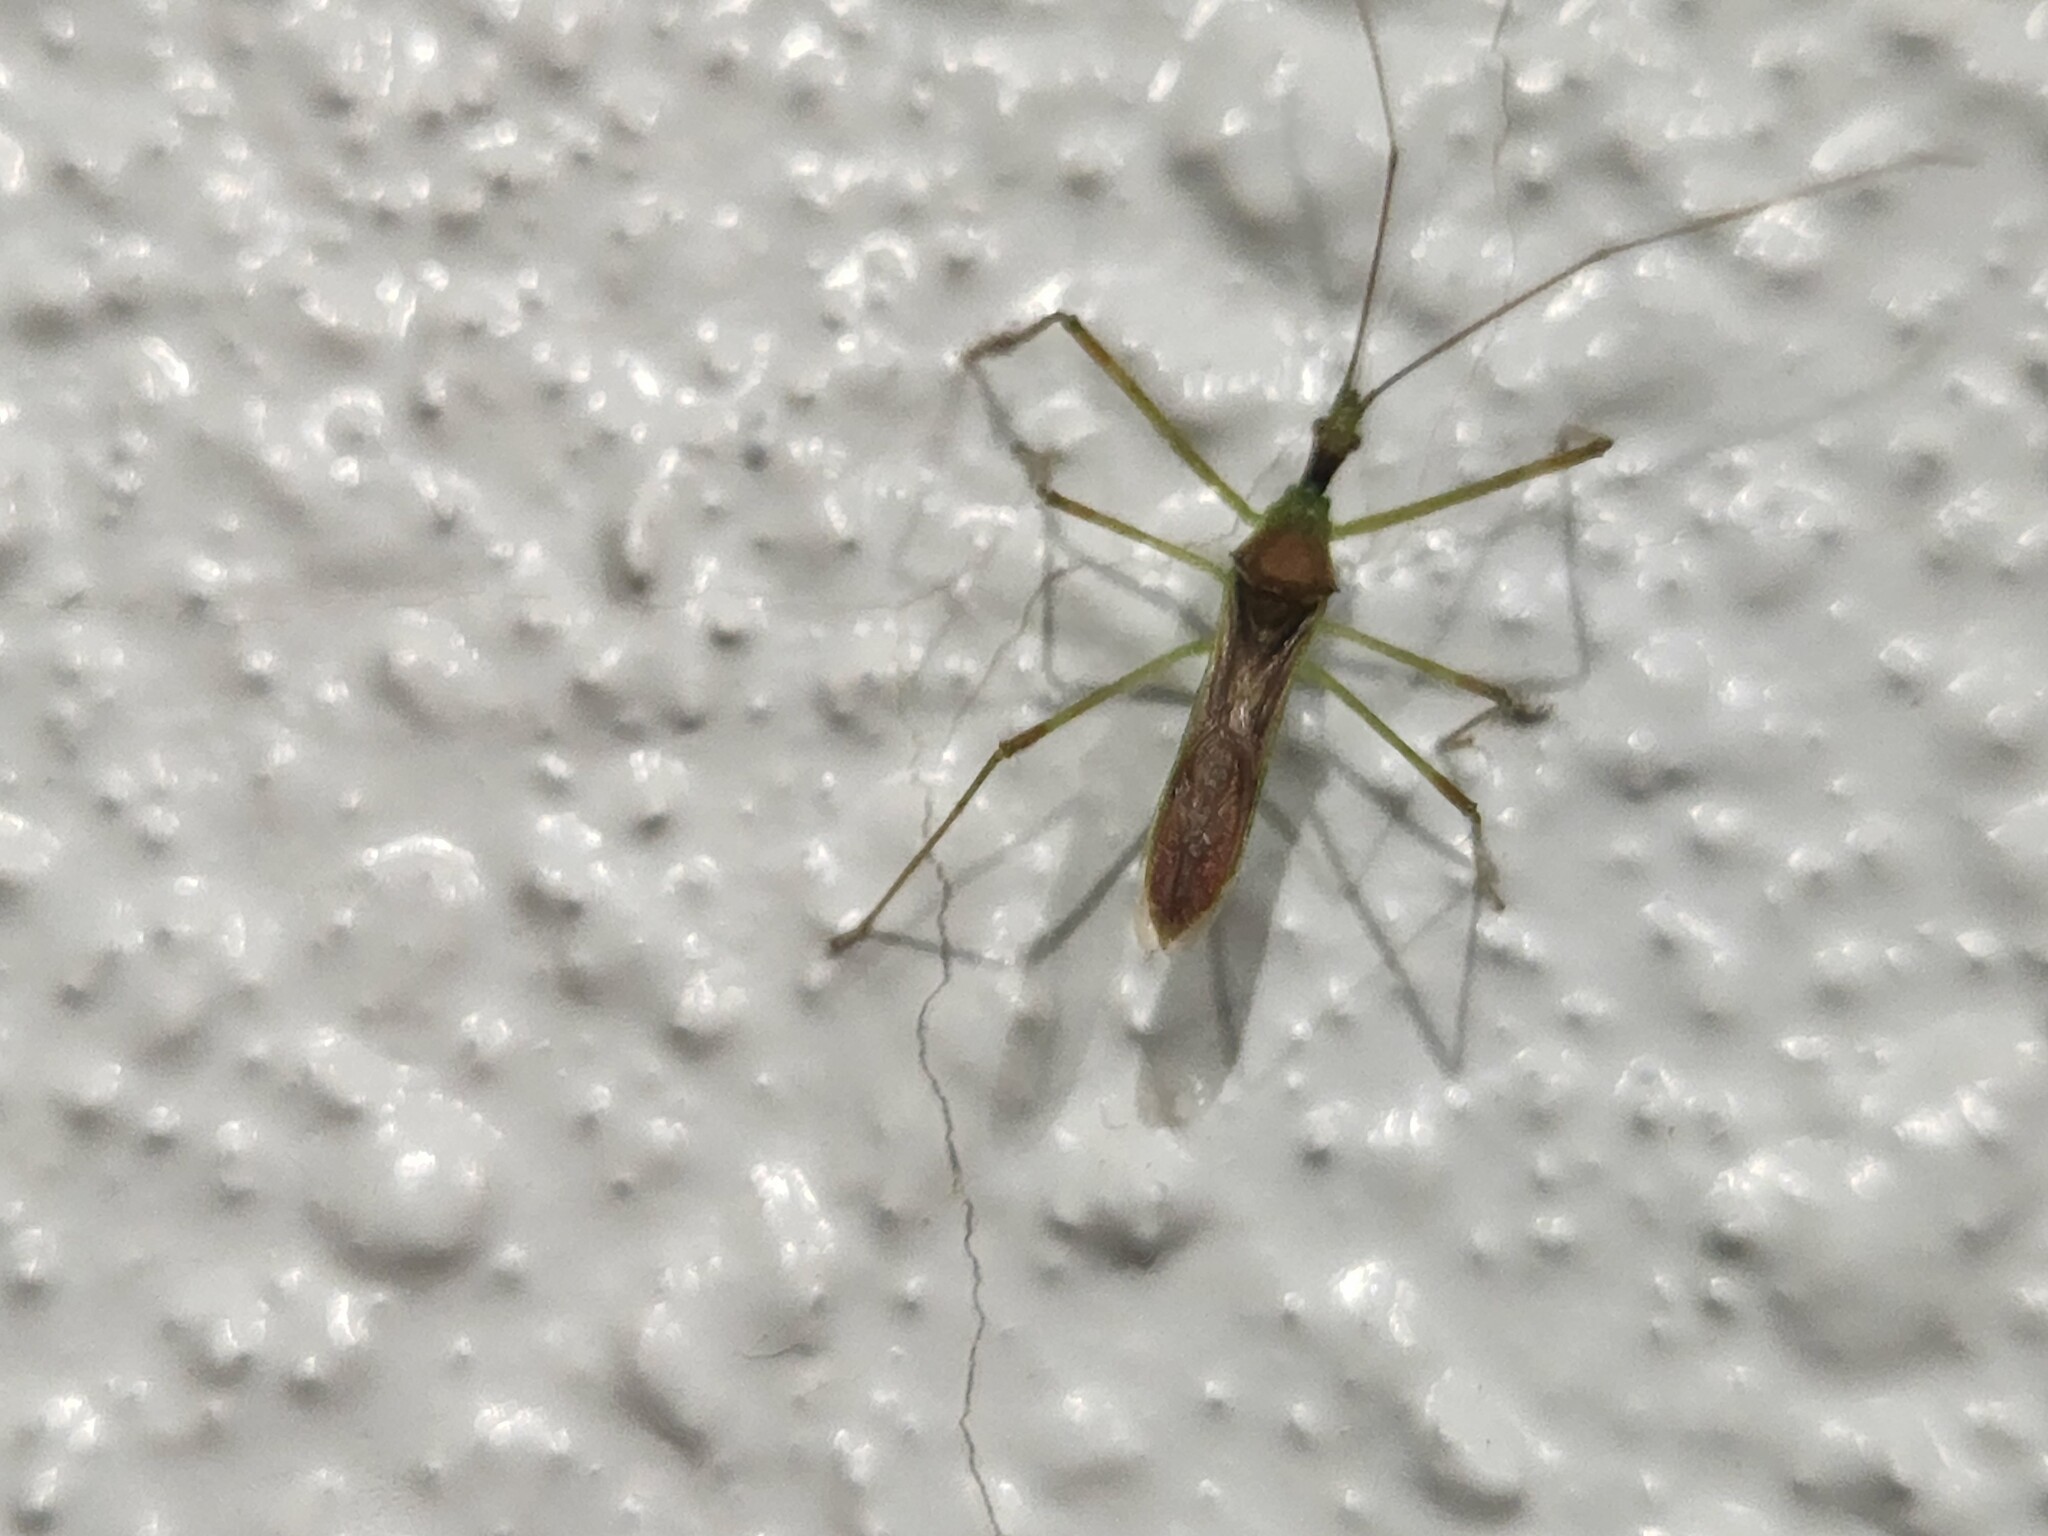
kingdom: Animalia
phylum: Arthropoda
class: Insecta
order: Hemiptera
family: Reduviidae
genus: Zelus
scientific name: Zelus luridus
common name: Pale green assassin bug
